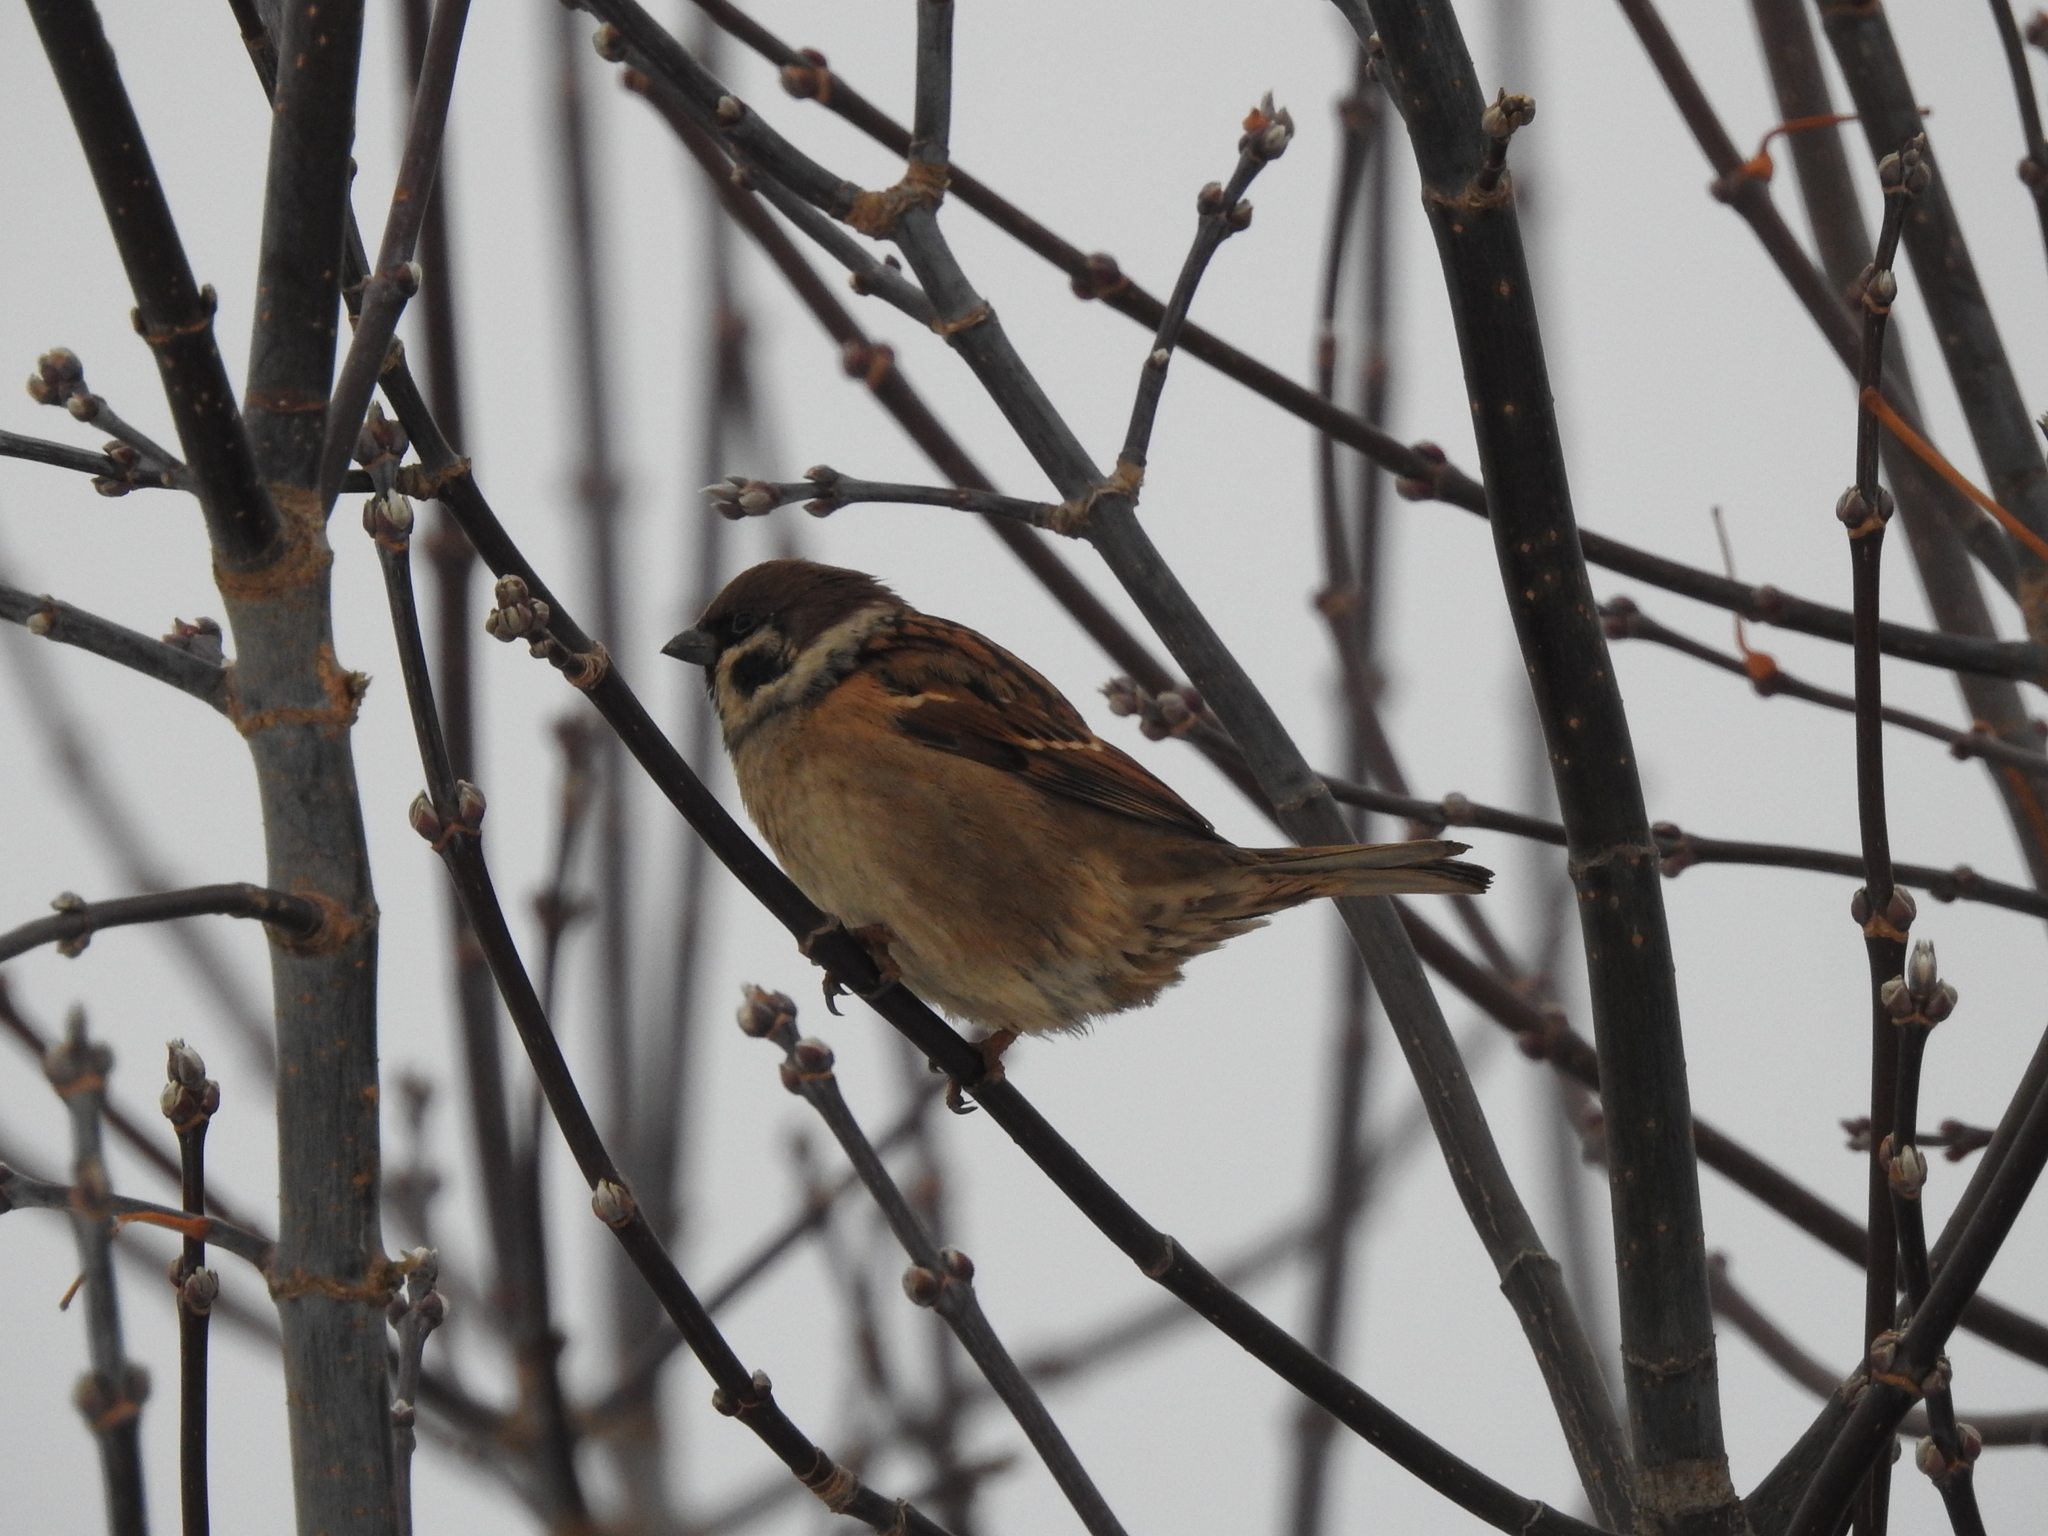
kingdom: Animalia
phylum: Chordata
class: Aves
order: Passeriformes
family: Passeridae
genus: Passer
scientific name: Passer montanus
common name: Eurasian tree sparrow
